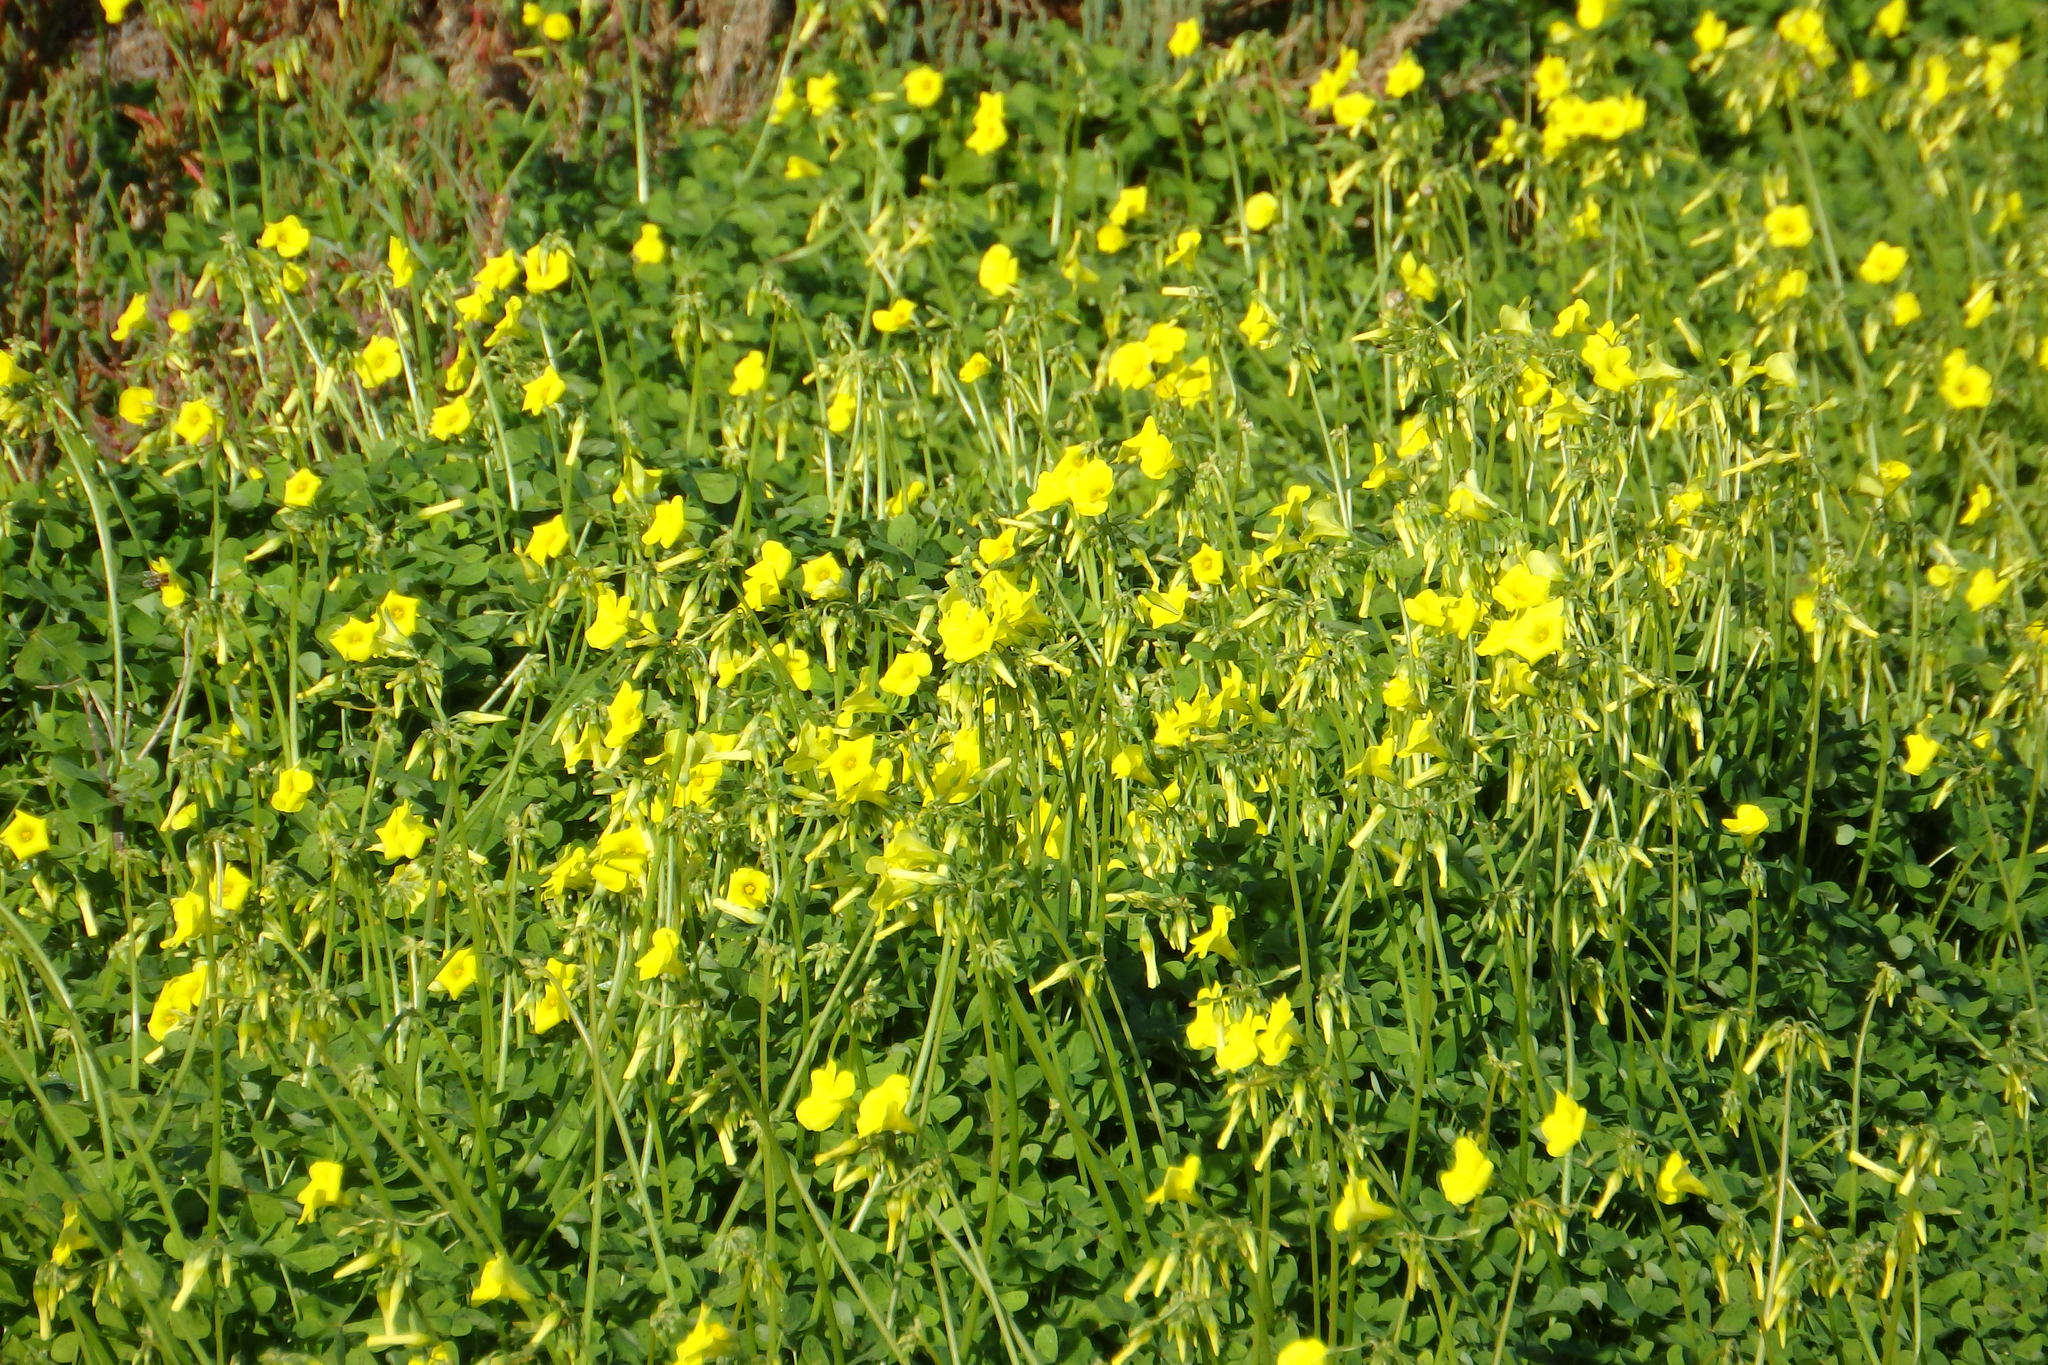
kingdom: Plantae
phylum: Tracheophyta
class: Magnoliopsida
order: Oxalidales
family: Oxalidaceae
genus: Oxalis
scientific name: Oxalis pes-caprae
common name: Bermuda-buttercup
